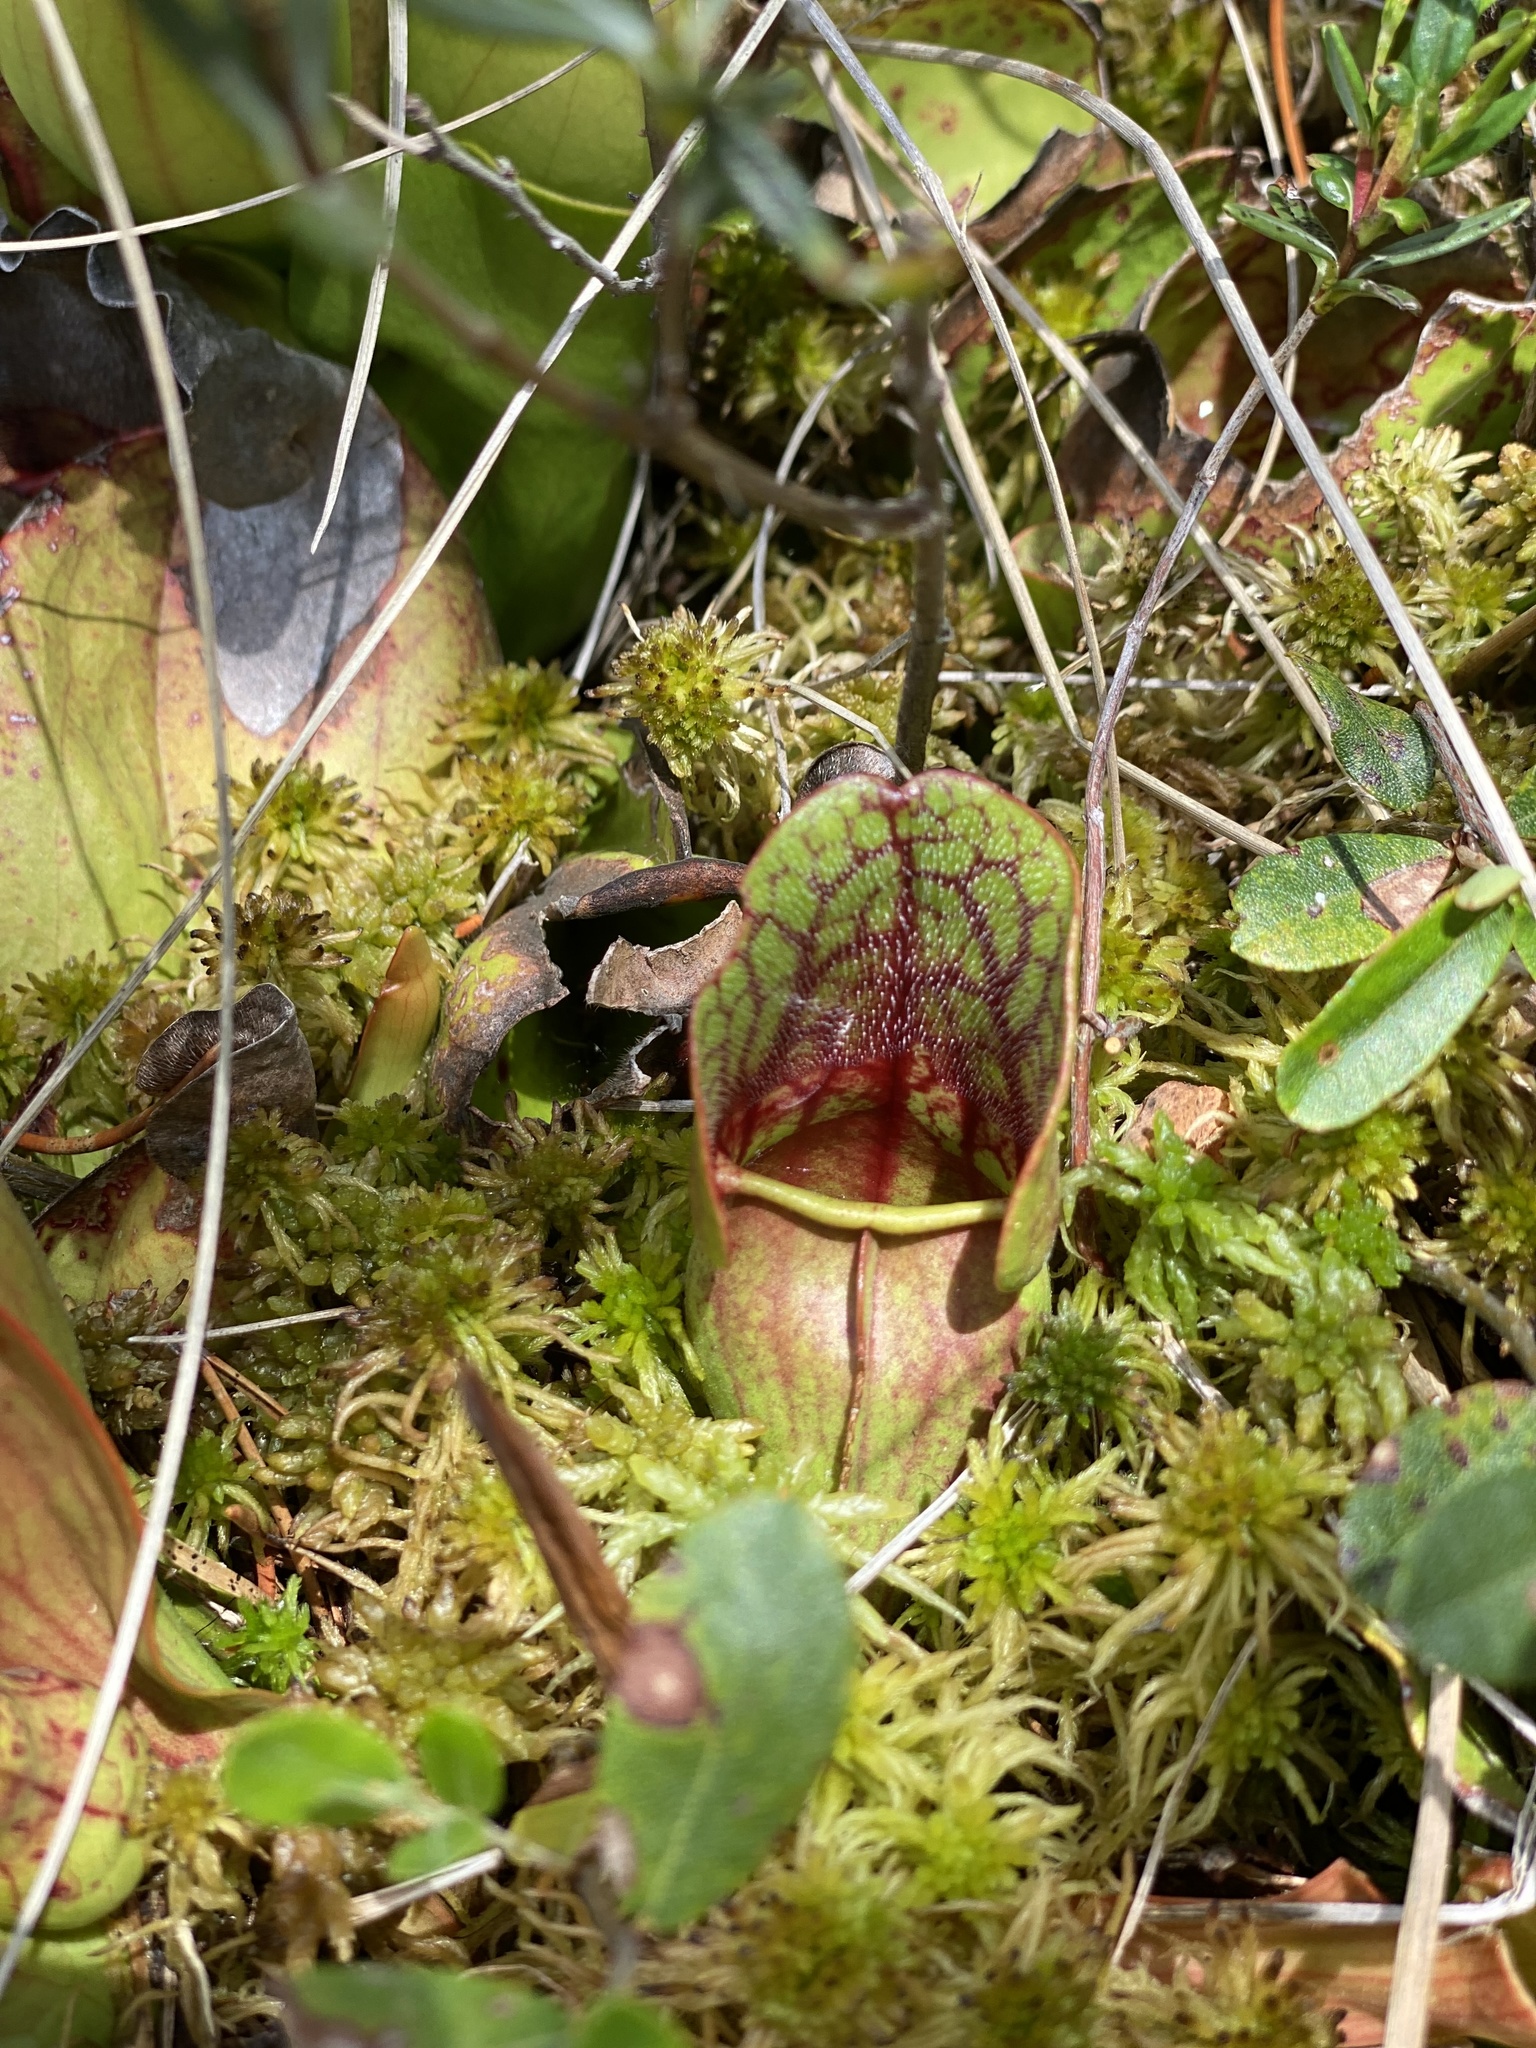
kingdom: Plantae
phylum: Tracheophyta
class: Magnoliopsida
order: Ericales
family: Sarraceniaceae
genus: Sarracenia
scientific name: Sarracenia purpurea
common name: Pitcherplant
